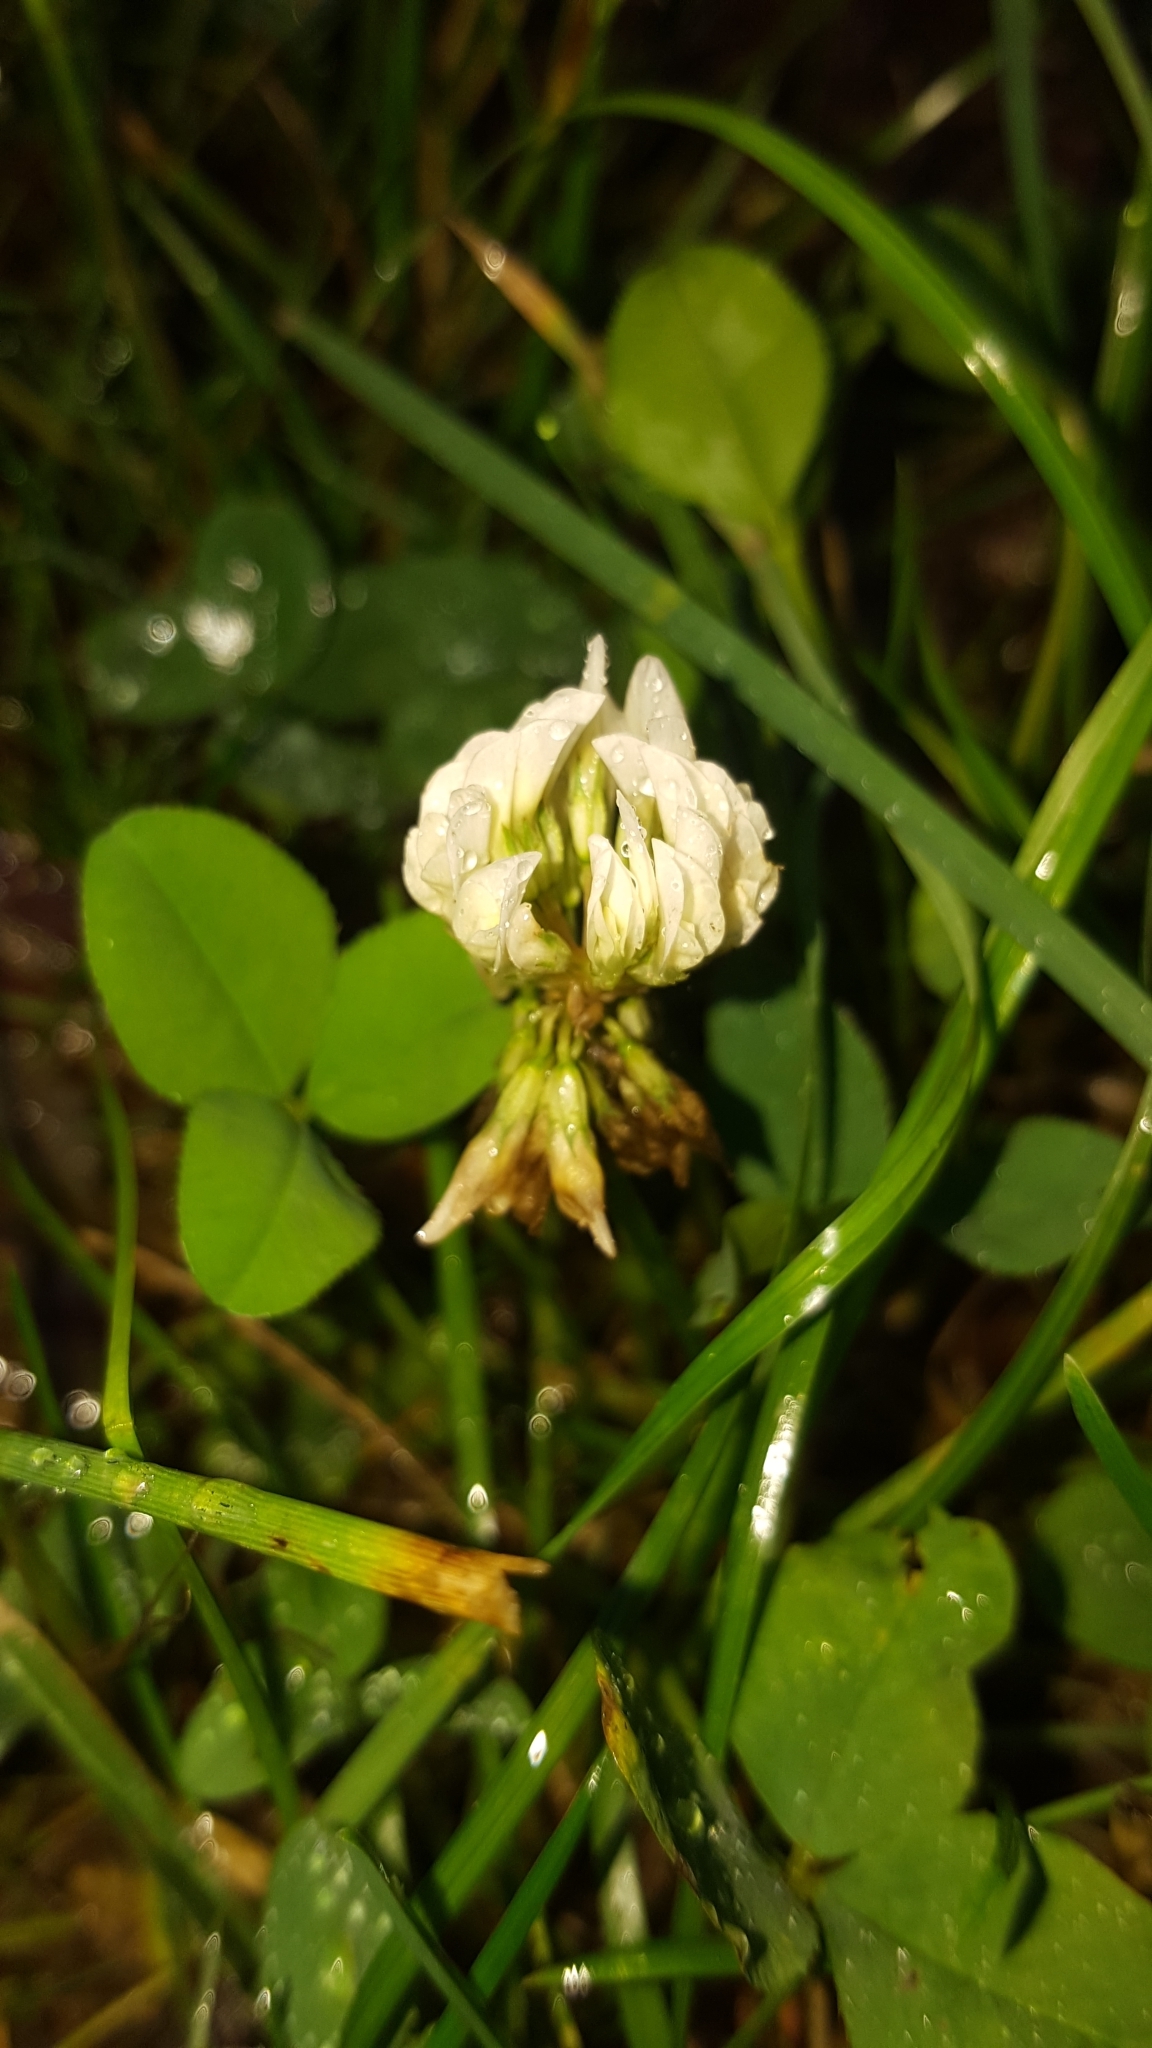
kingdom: Plantae
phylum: Tracheophyta
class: Magnoliopsida
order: Fabales
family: Fabaceae
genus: Trifolium
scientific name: Trifolium repens
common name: White clover
